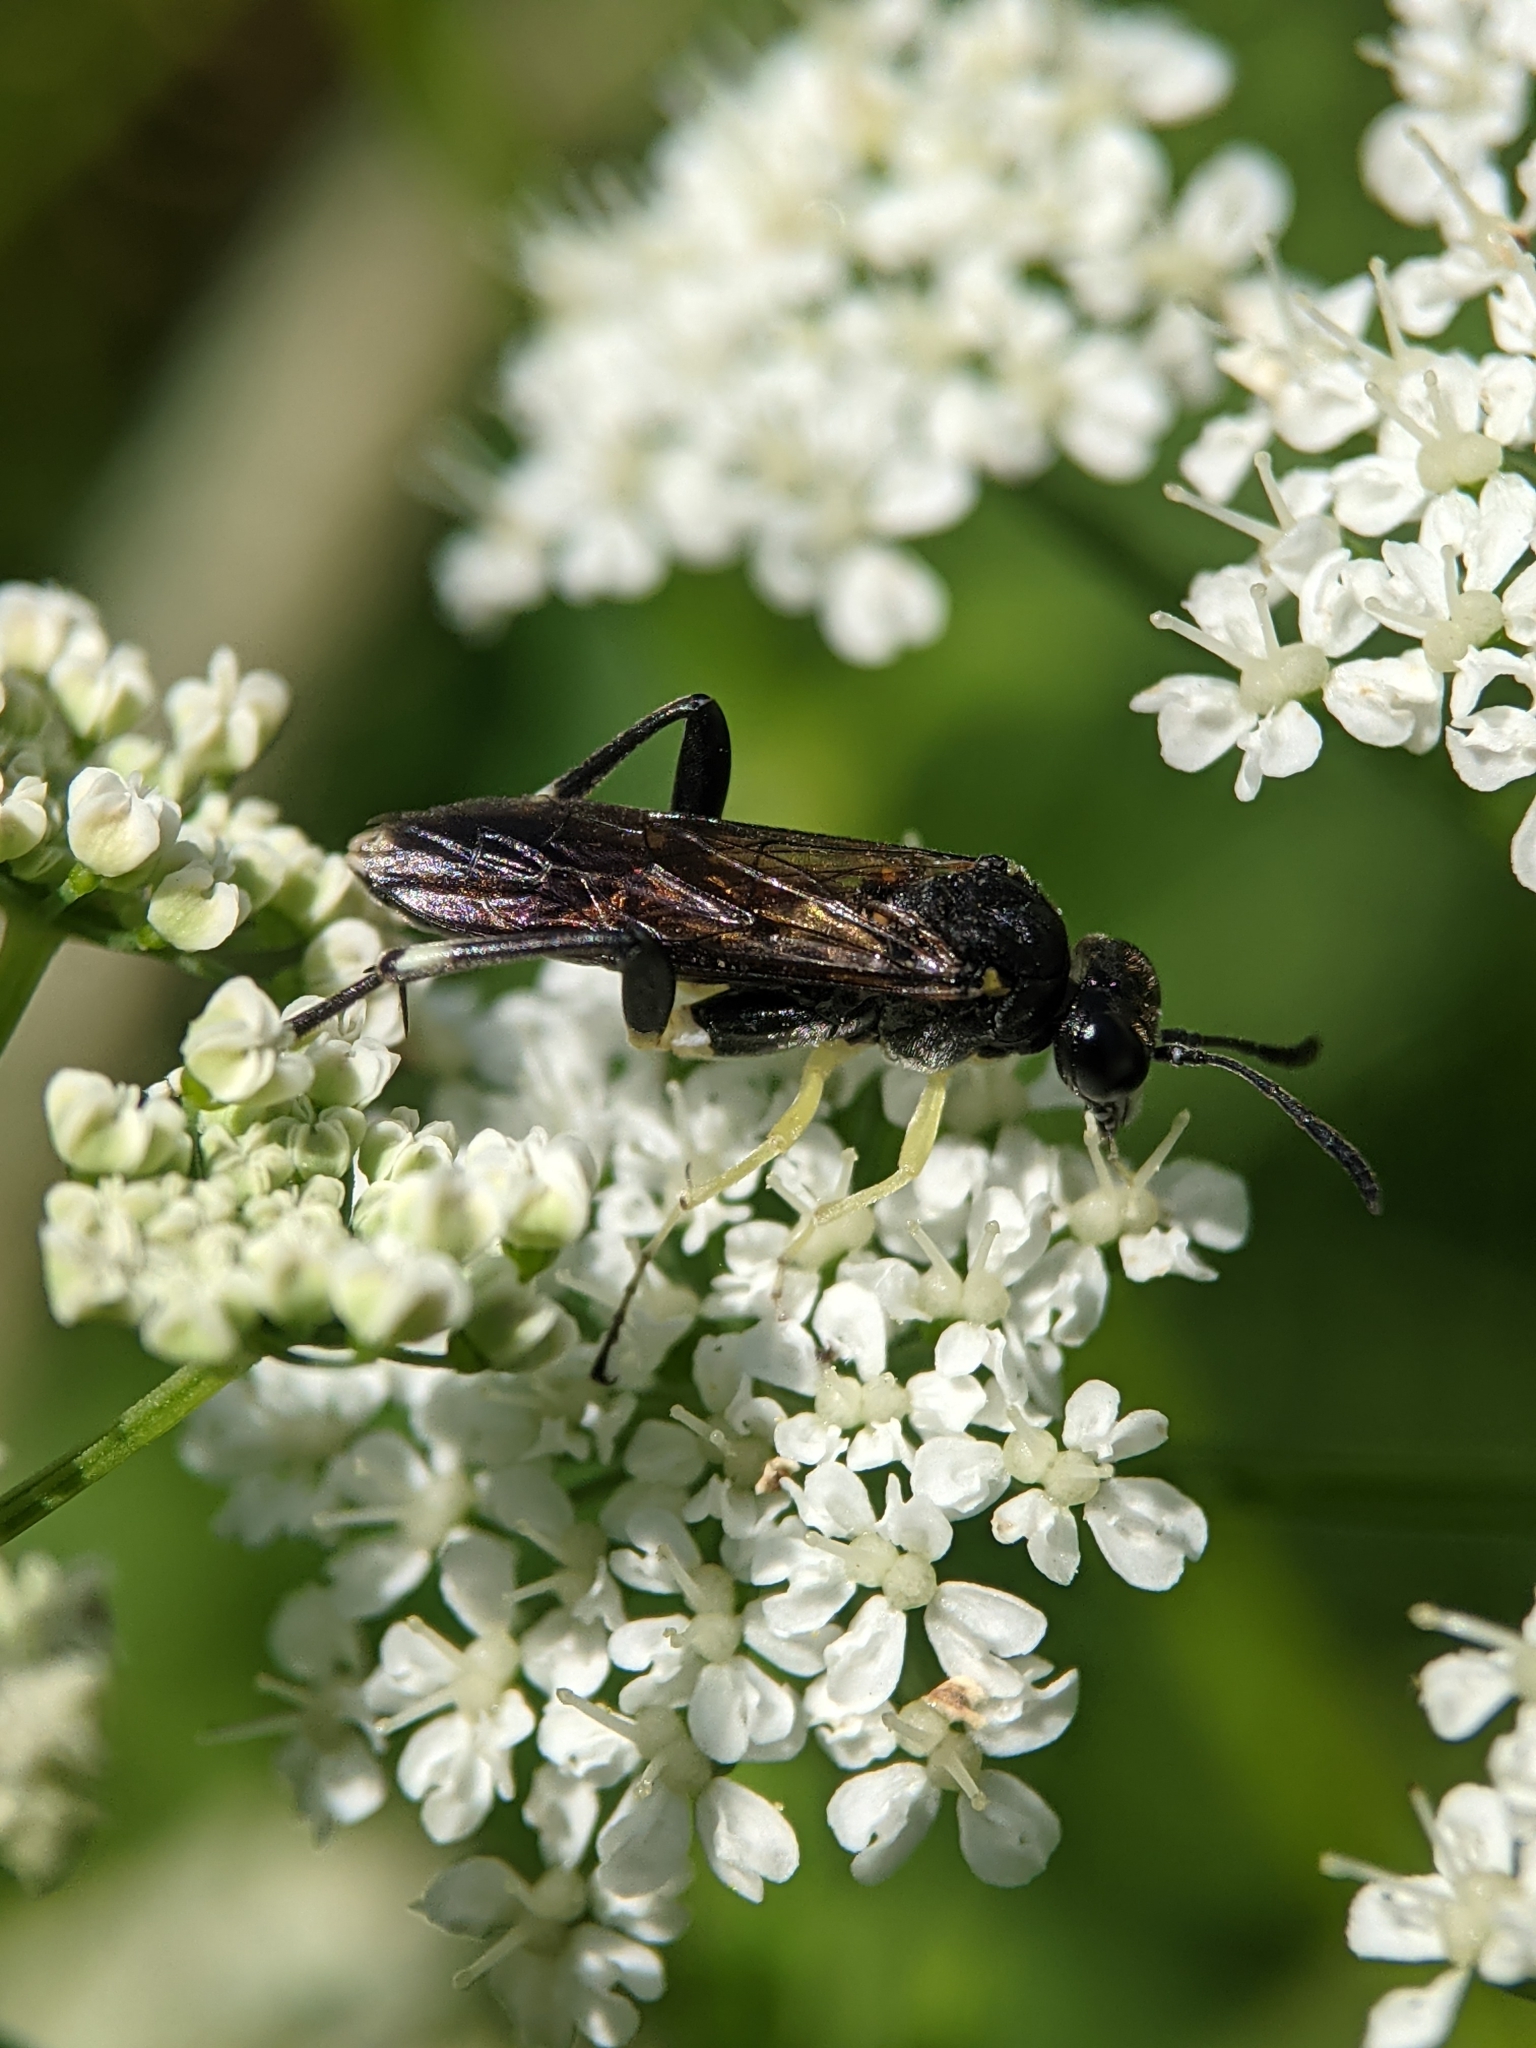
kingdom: Animalia
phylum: Arthropoda
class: Insecta
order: Hymenoptera
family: Tenthredinidae
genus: Macrophya
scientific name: Macrophya montana
